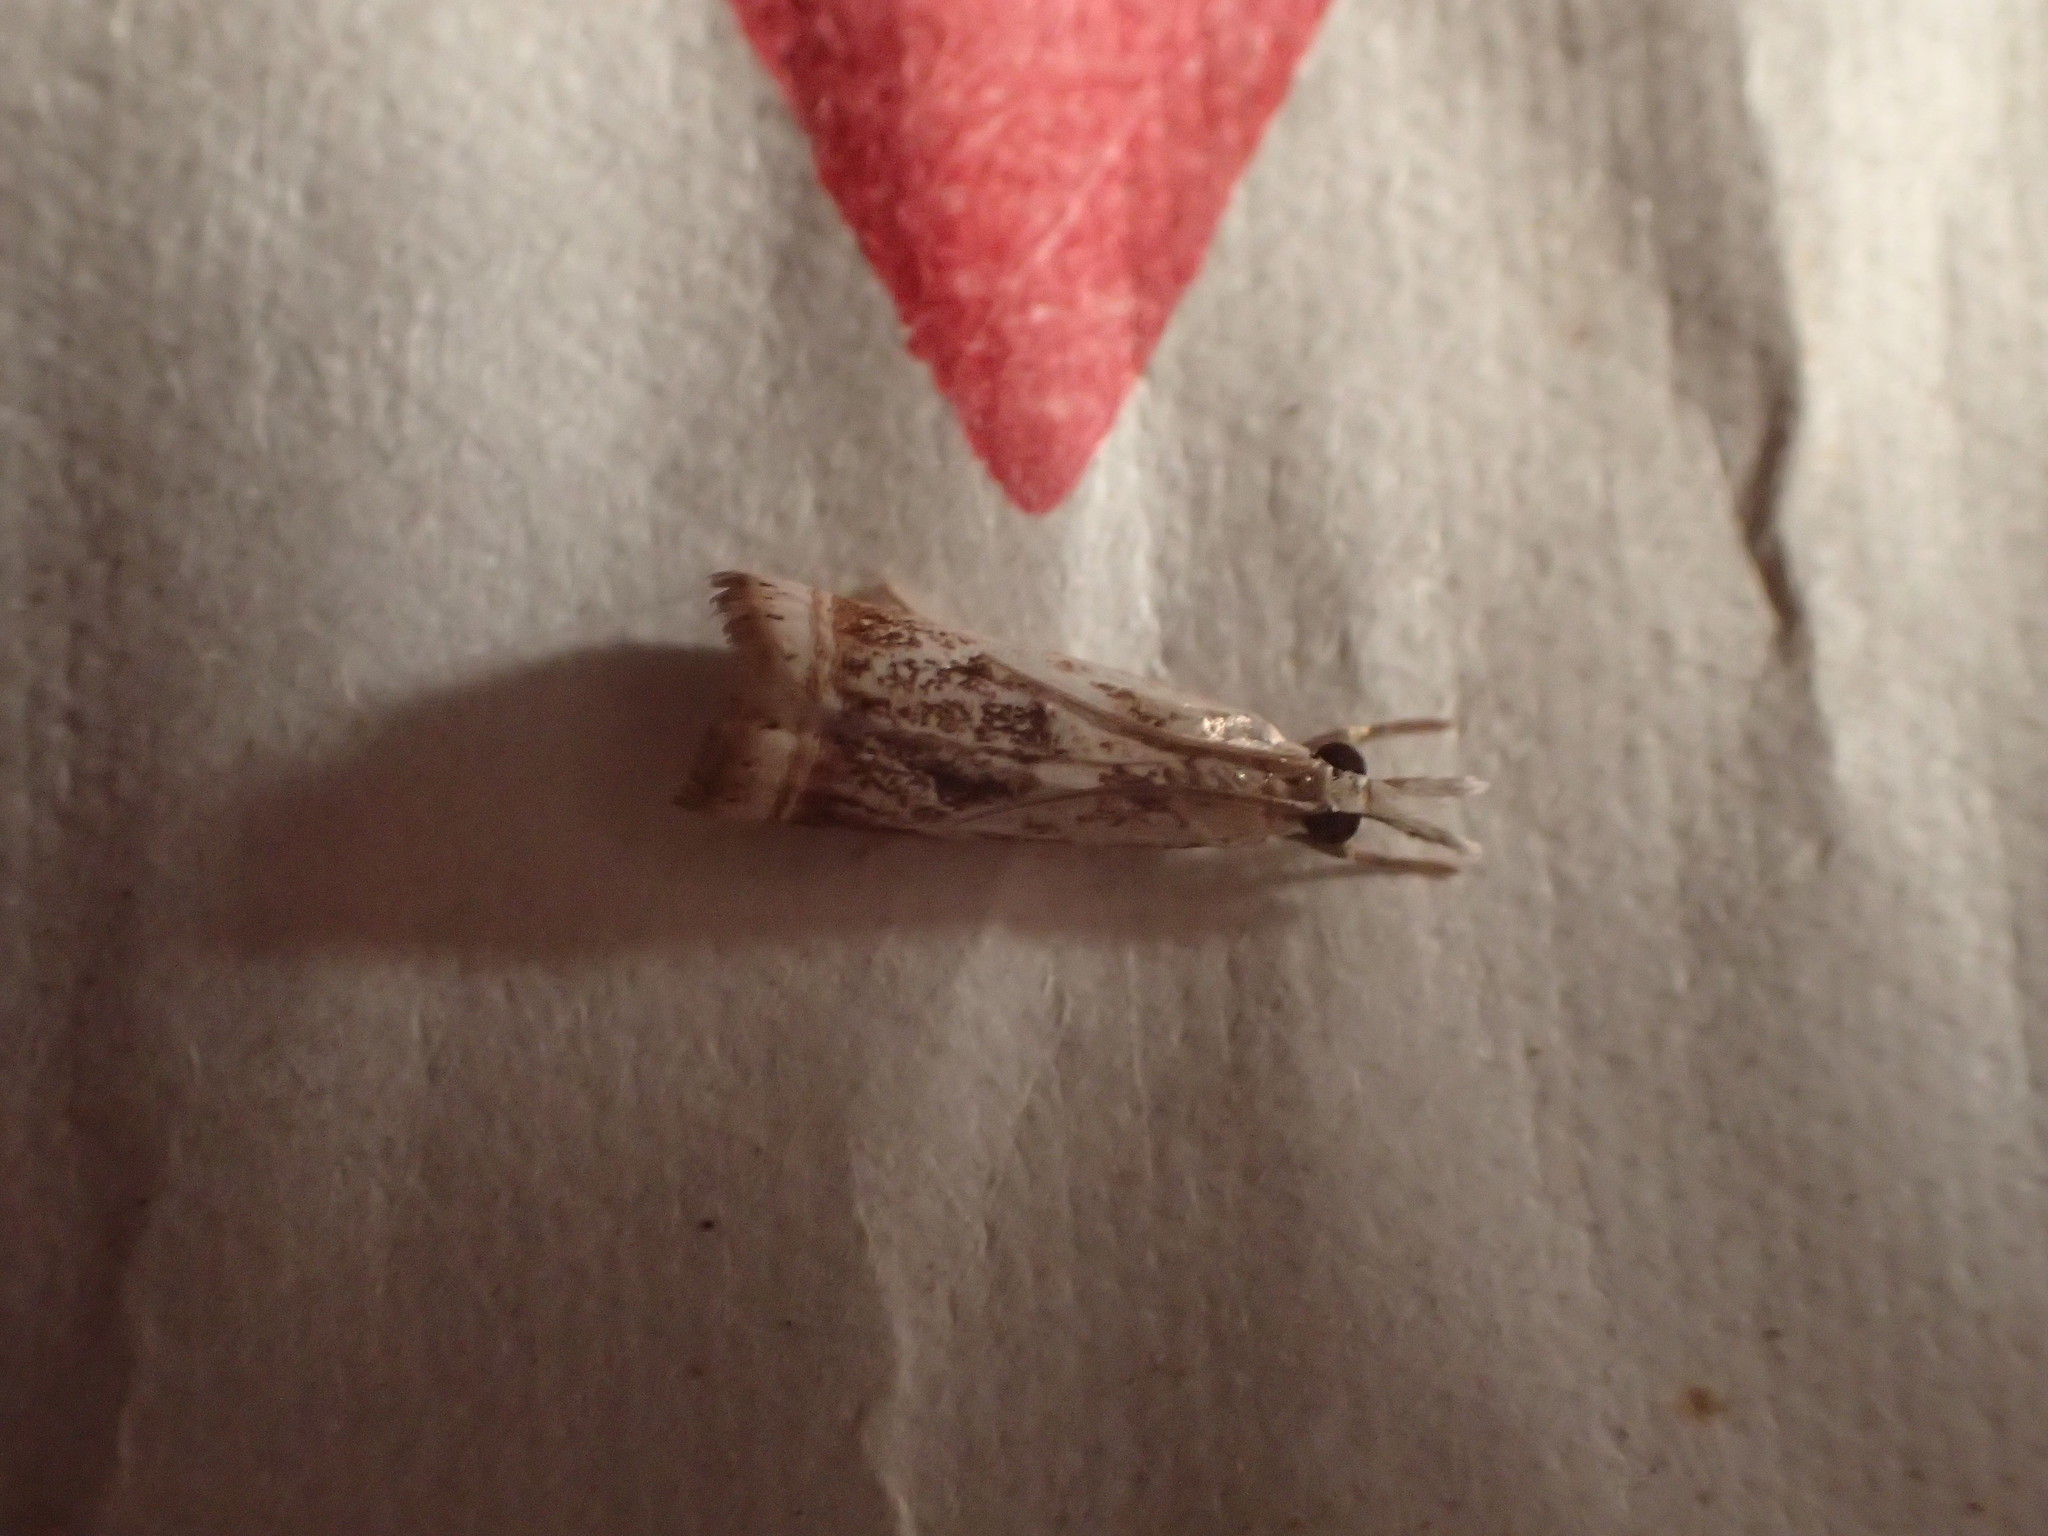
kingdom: Animalia
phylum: Arthropoda
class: Insecta
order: Lepidoptera
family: Crambidae
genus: Microcrambus
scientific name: Microcrambus elegans
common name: Elegant grass-veneer
